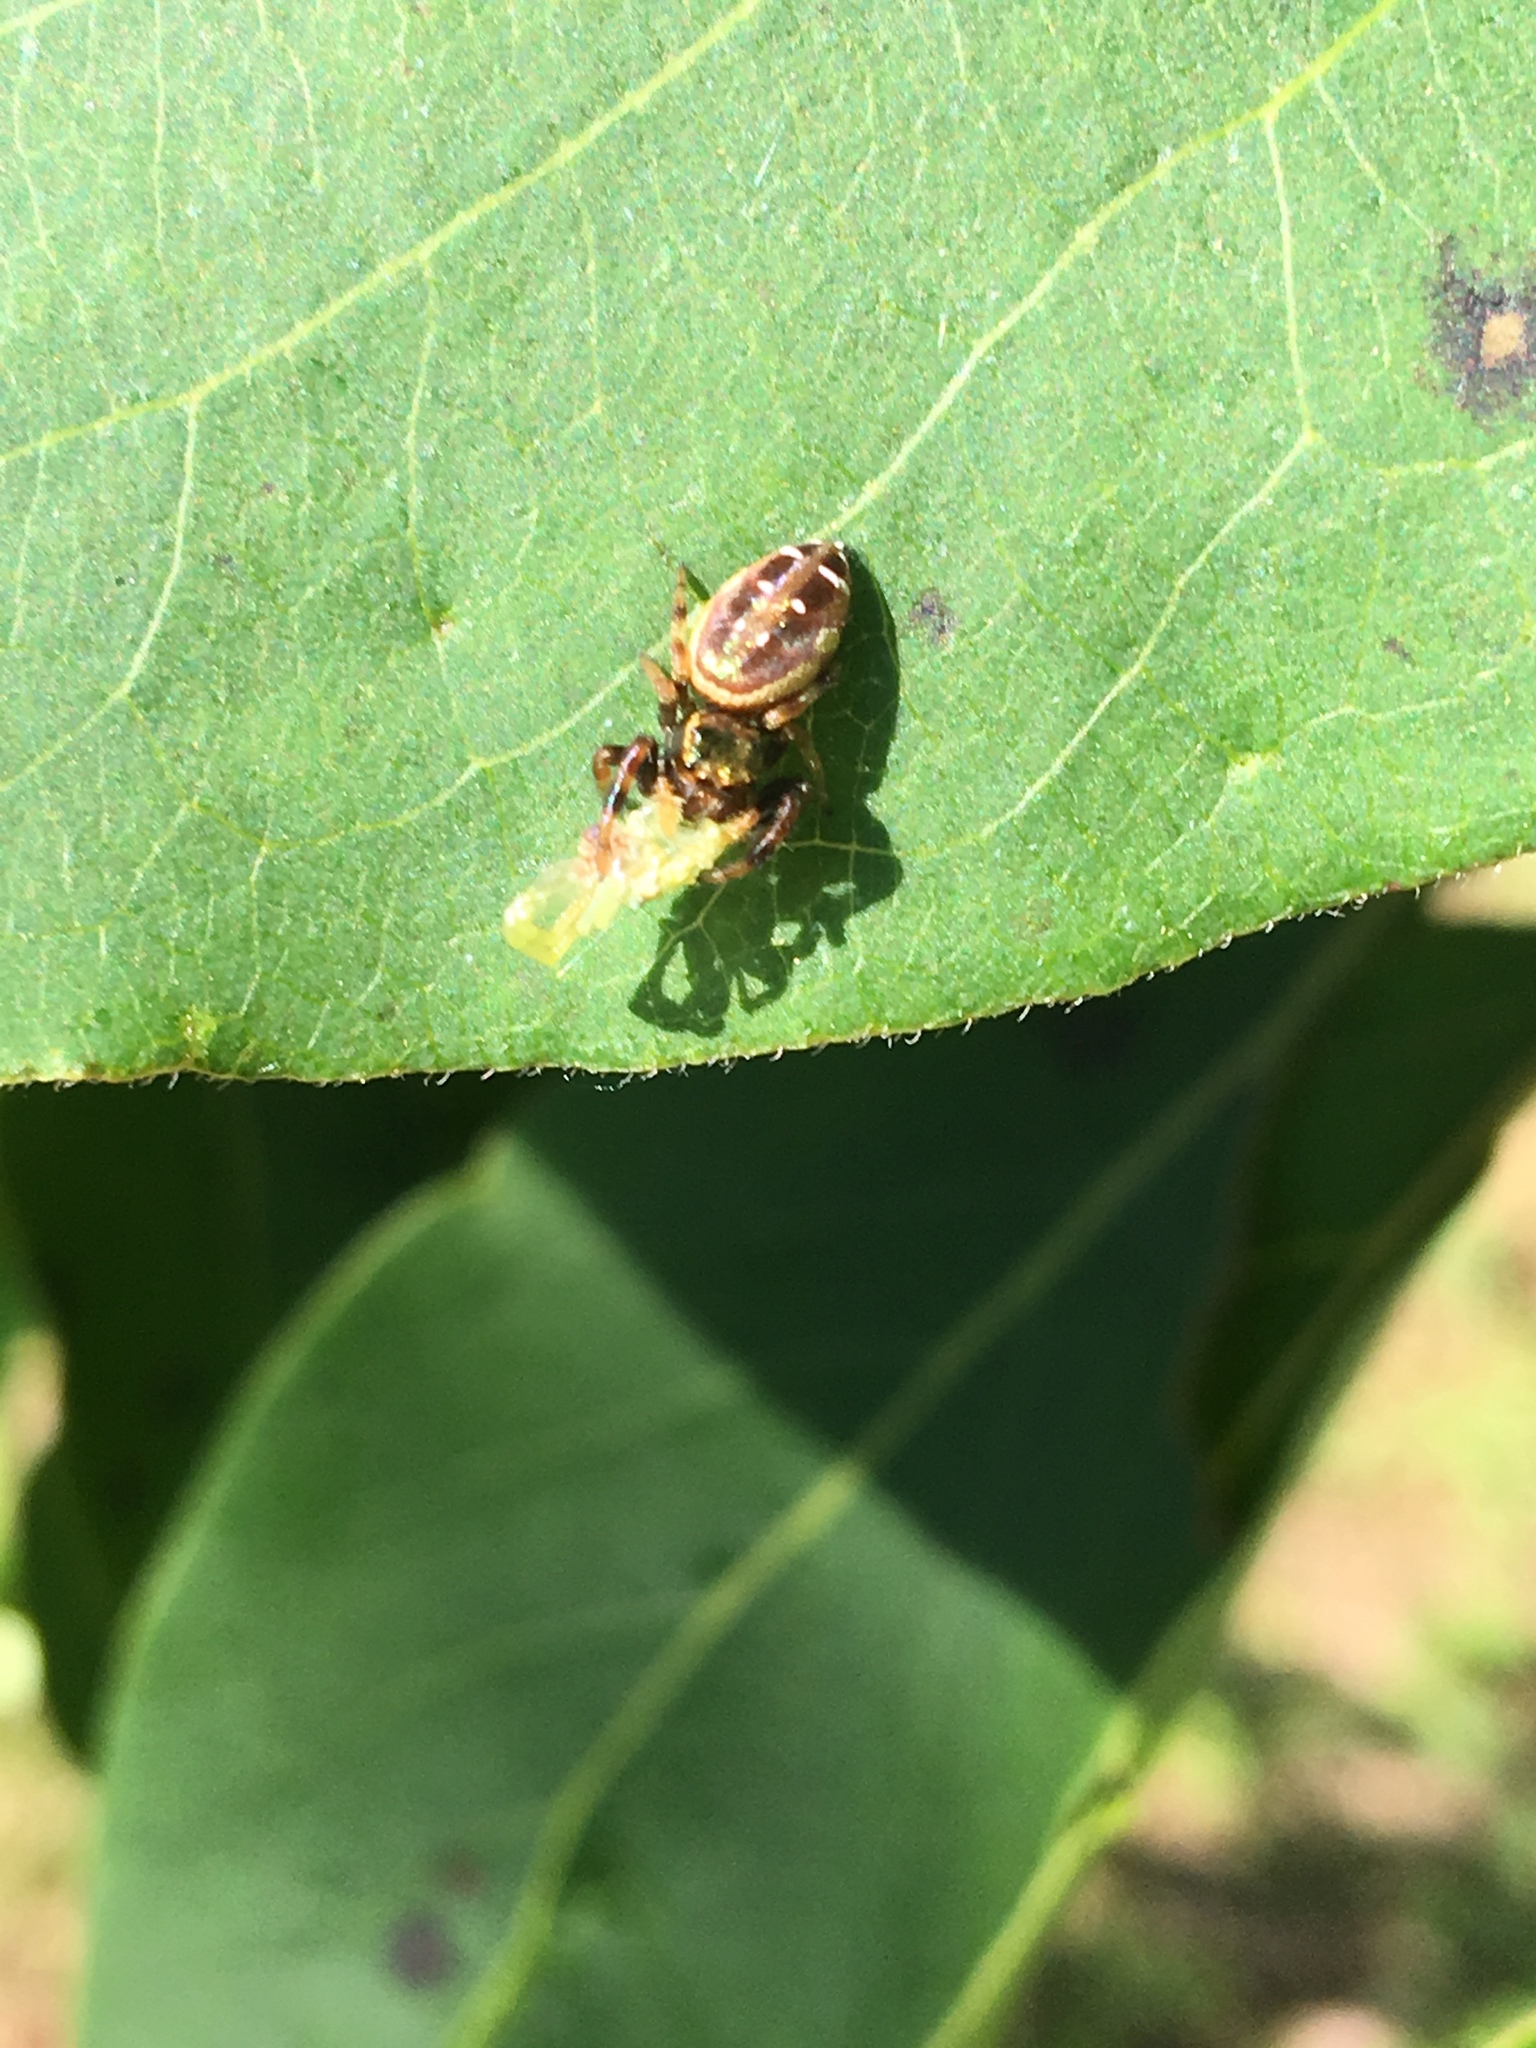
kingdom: Animalia
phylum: Arthropoda
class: Arachnida
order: Araneae
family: Salticidae
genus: Paraphidippus
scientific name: Paraphidippus aurantius
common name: Jumping spiders
